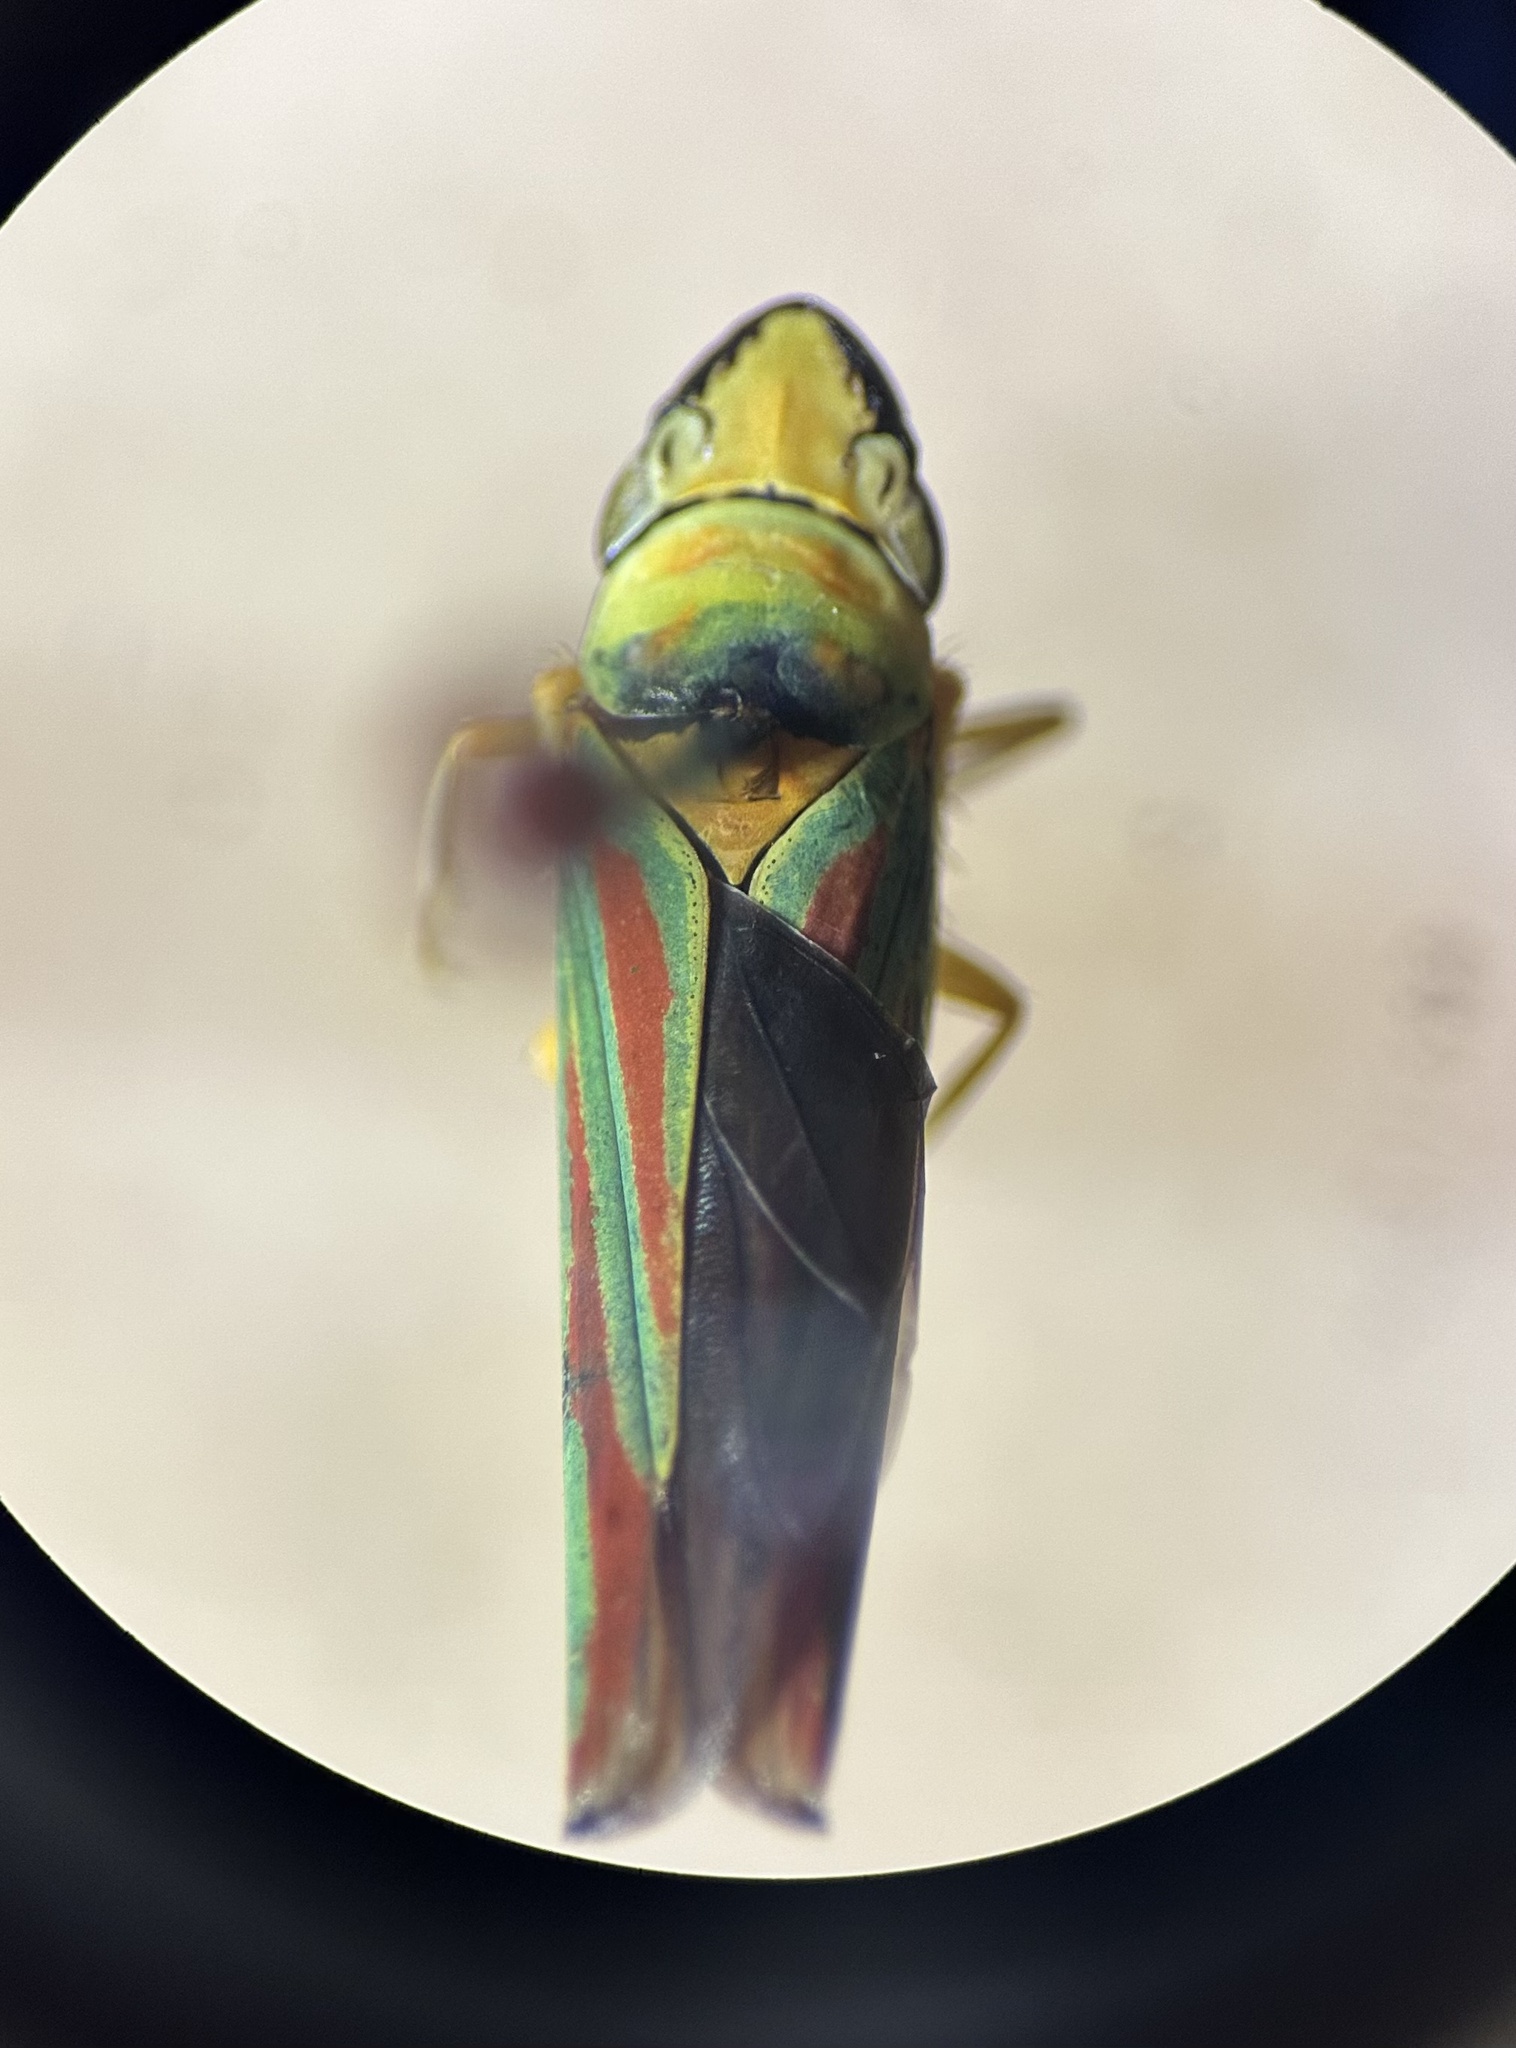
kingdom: Animalia
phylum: Arthropoda
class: Insecta
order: Hemiptera
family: Cicadellidae
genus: Graphocephala
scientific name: Graphocephala fennahi
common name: Rhododendron leafhopper
